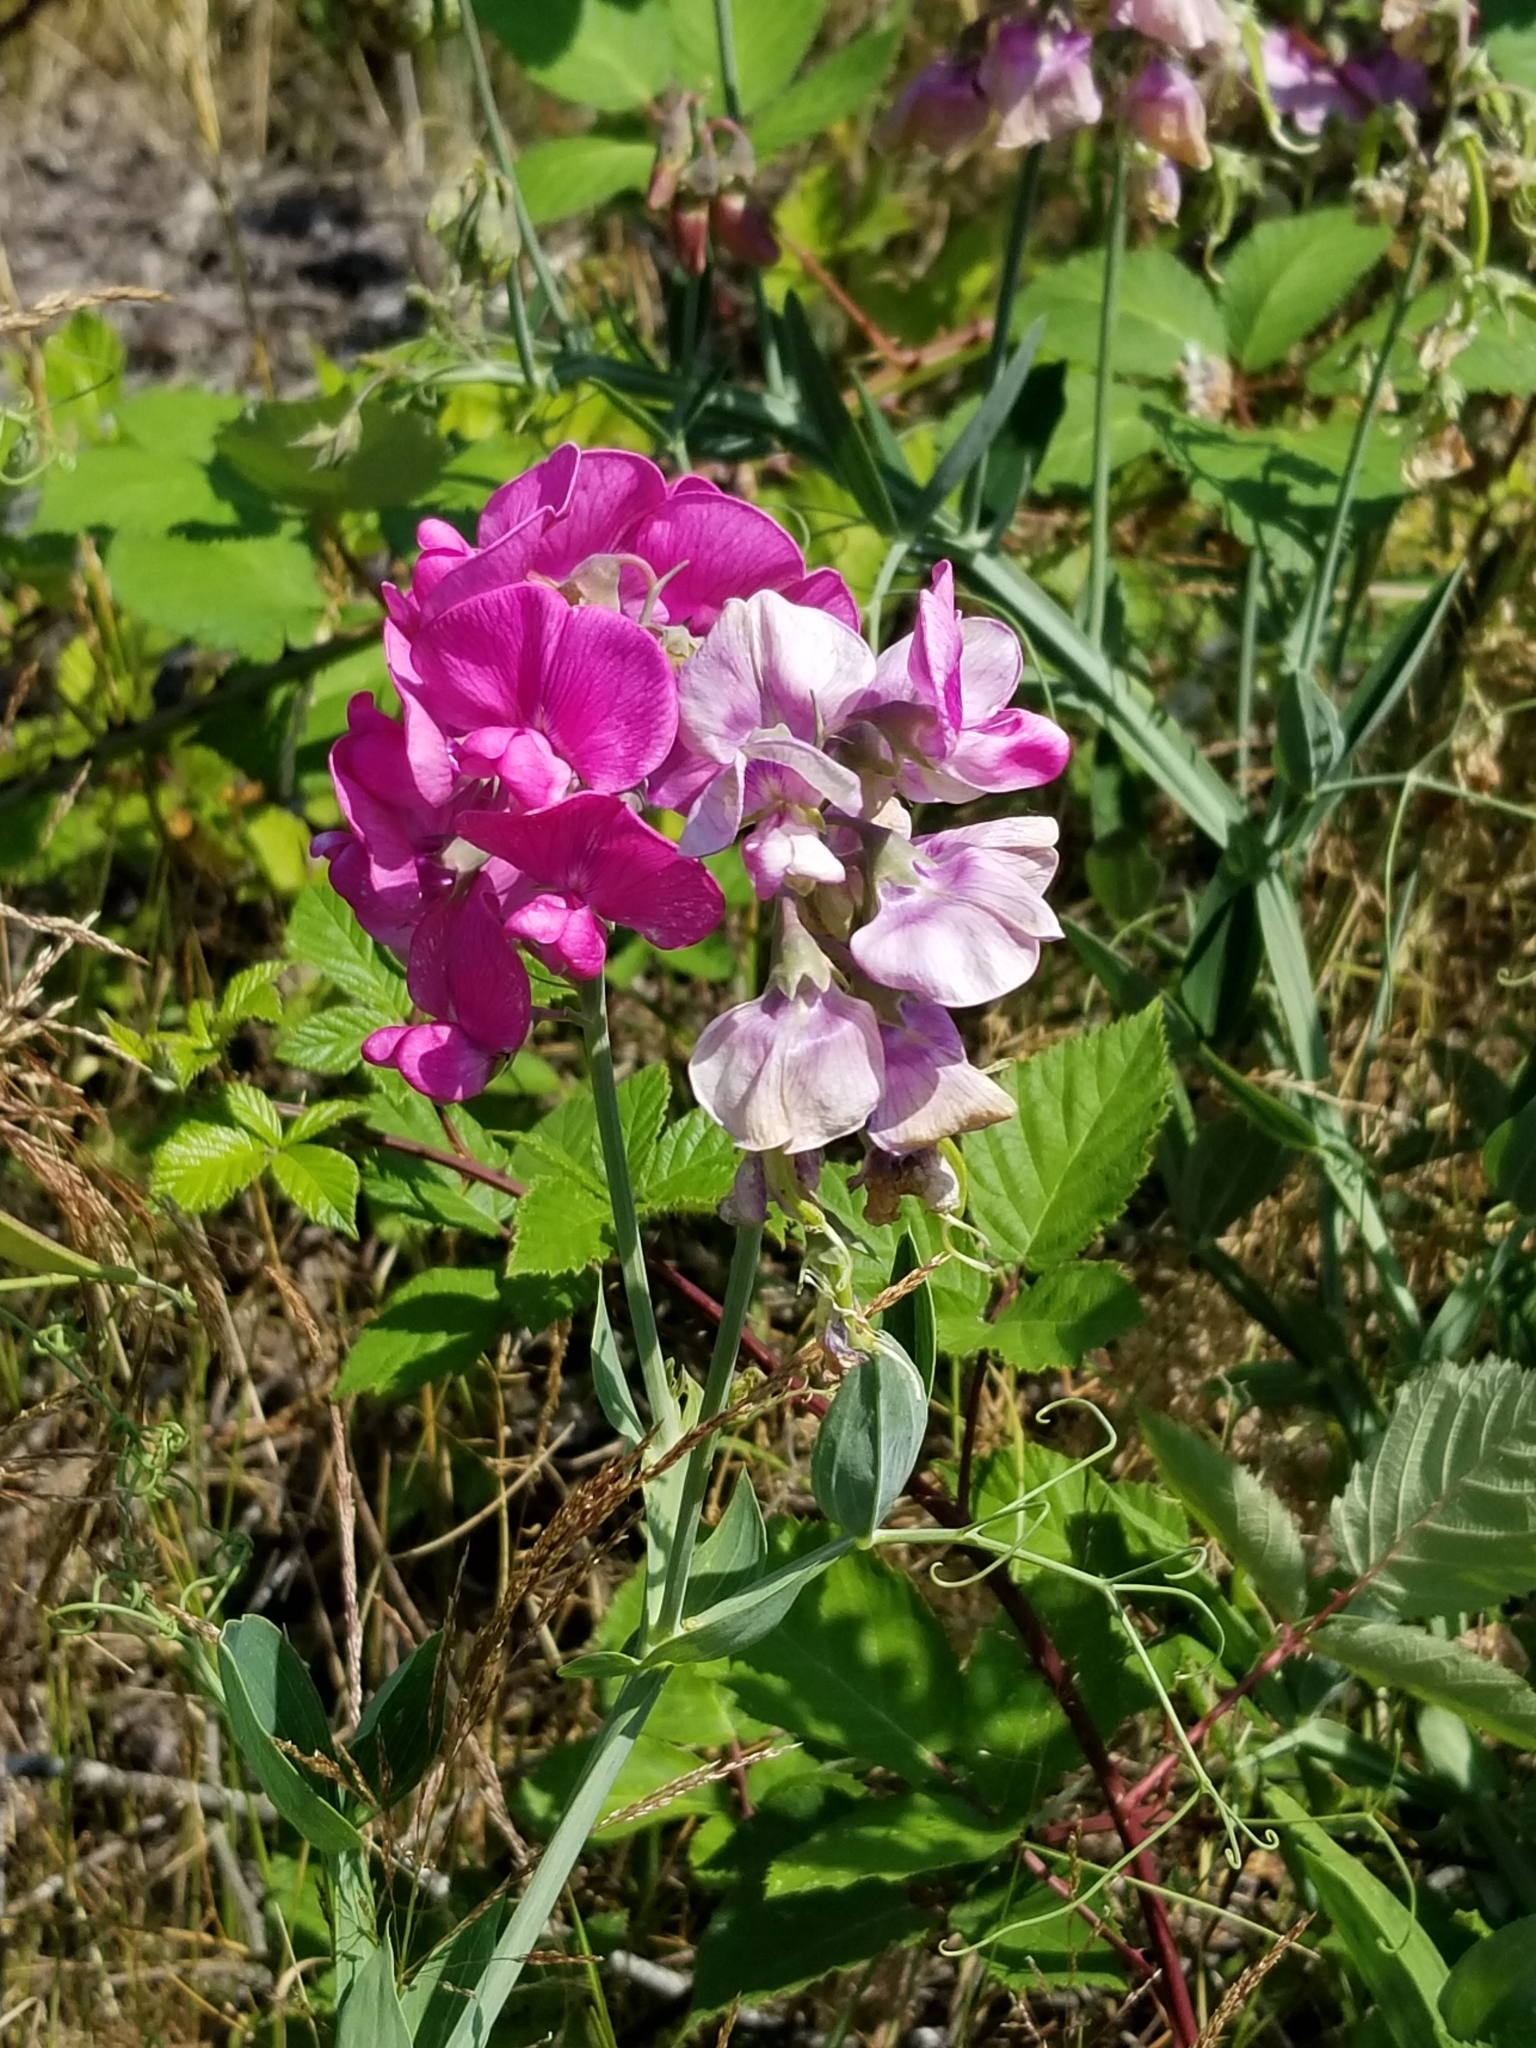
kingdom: Plantae
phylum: Tracheophyta
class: Magnoliopsida
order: Fabales
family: Fabaceae
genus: Lathyrus
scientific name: Lathyrus latifolius
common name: Perennial pea
